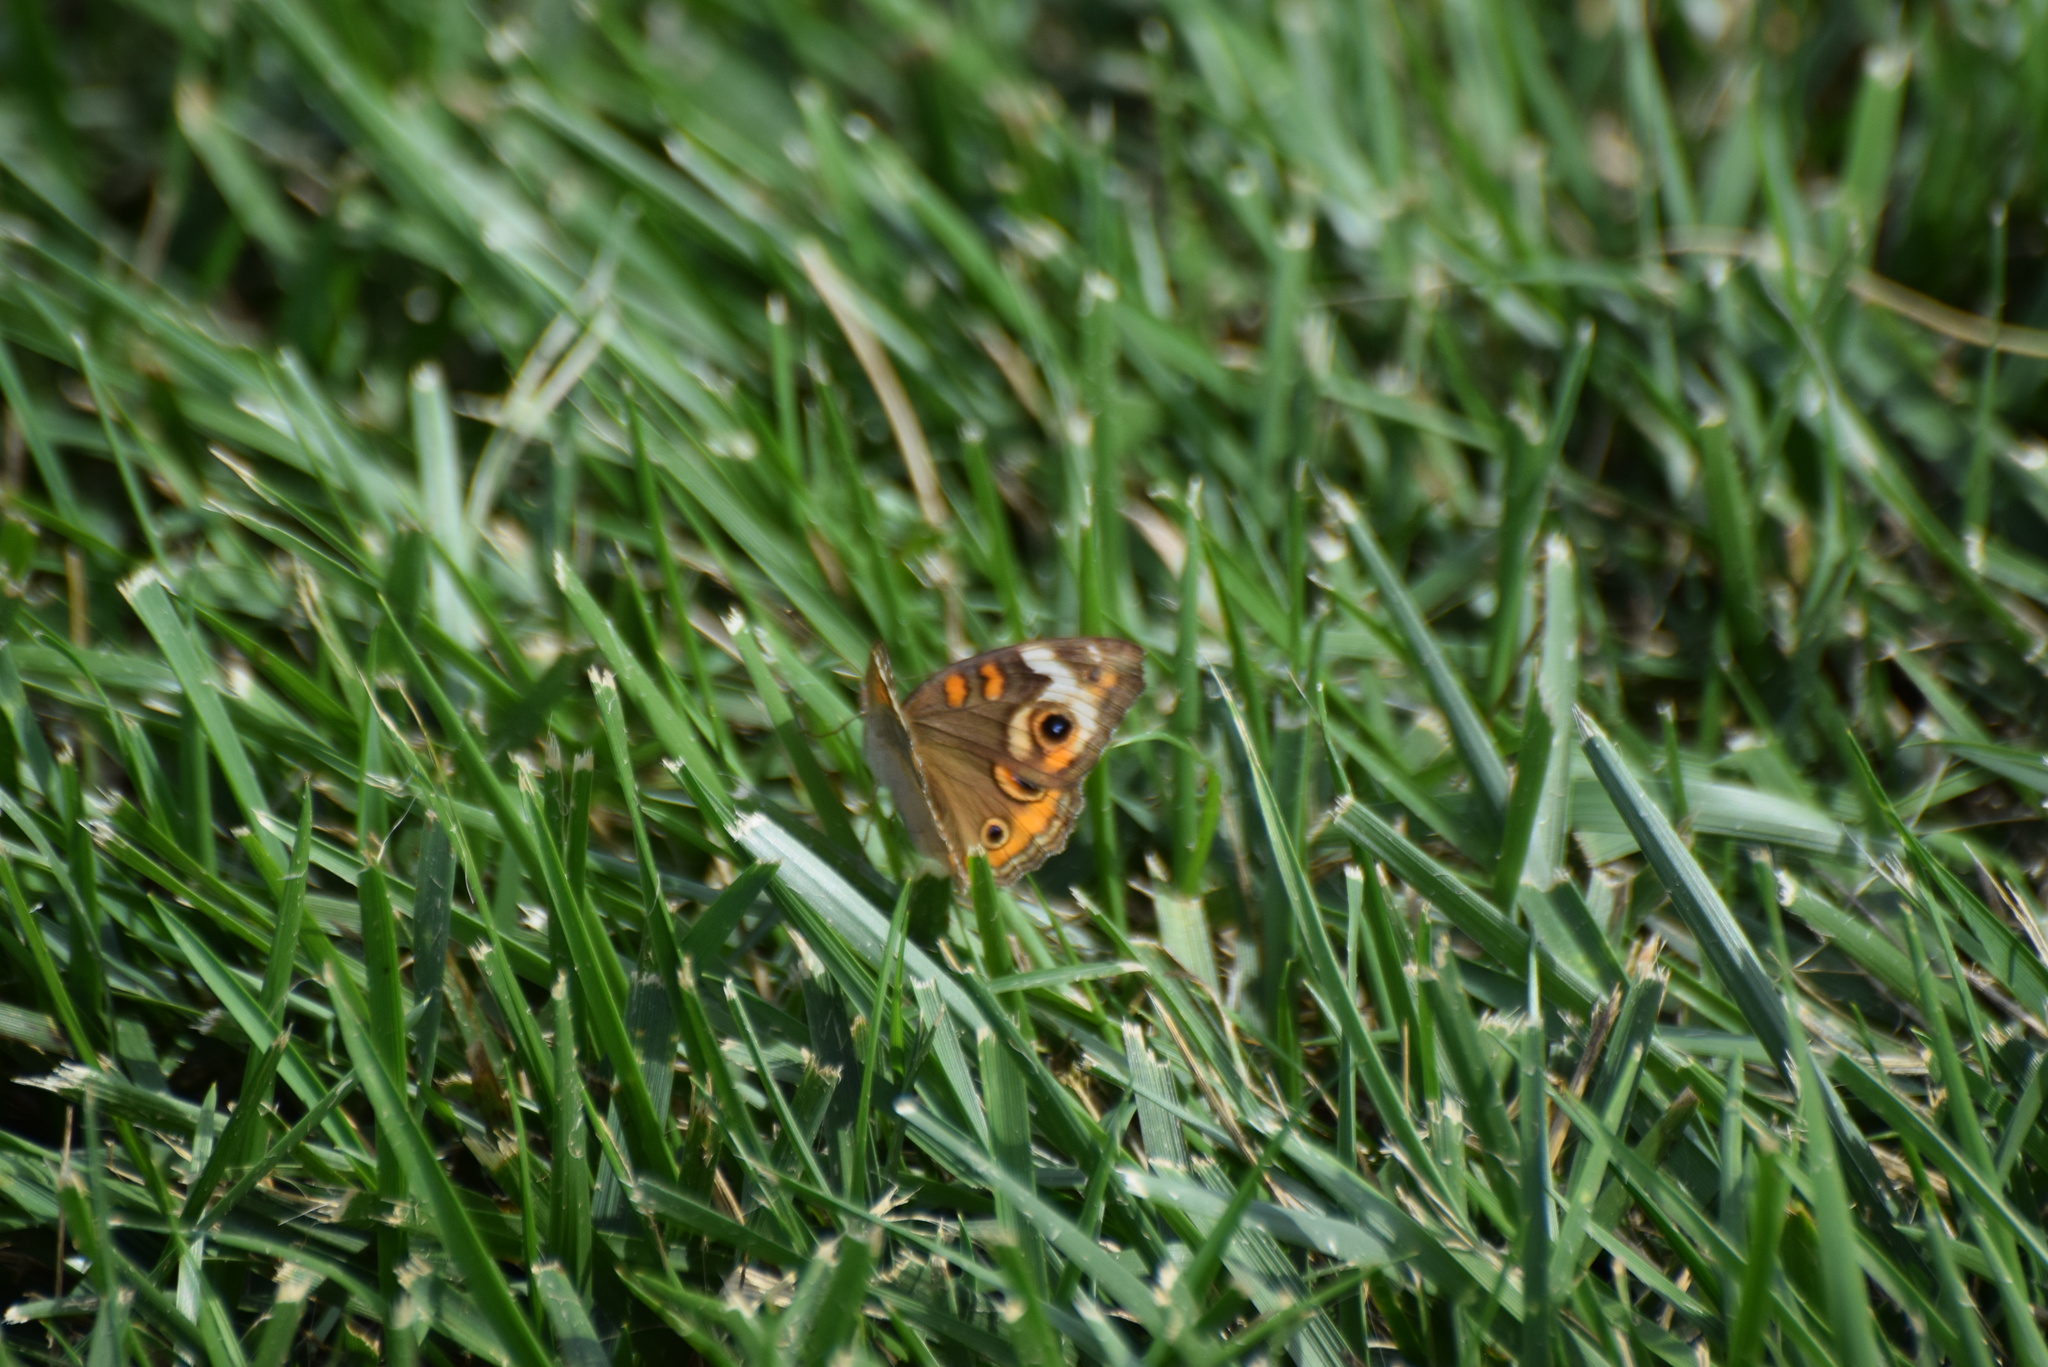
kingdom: Animalia
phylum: Arthropoda
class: Insecta
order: Lepidoptera
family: Nymphalidae
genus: Junonia
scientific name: Junonia coenia
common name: Common buckeye
